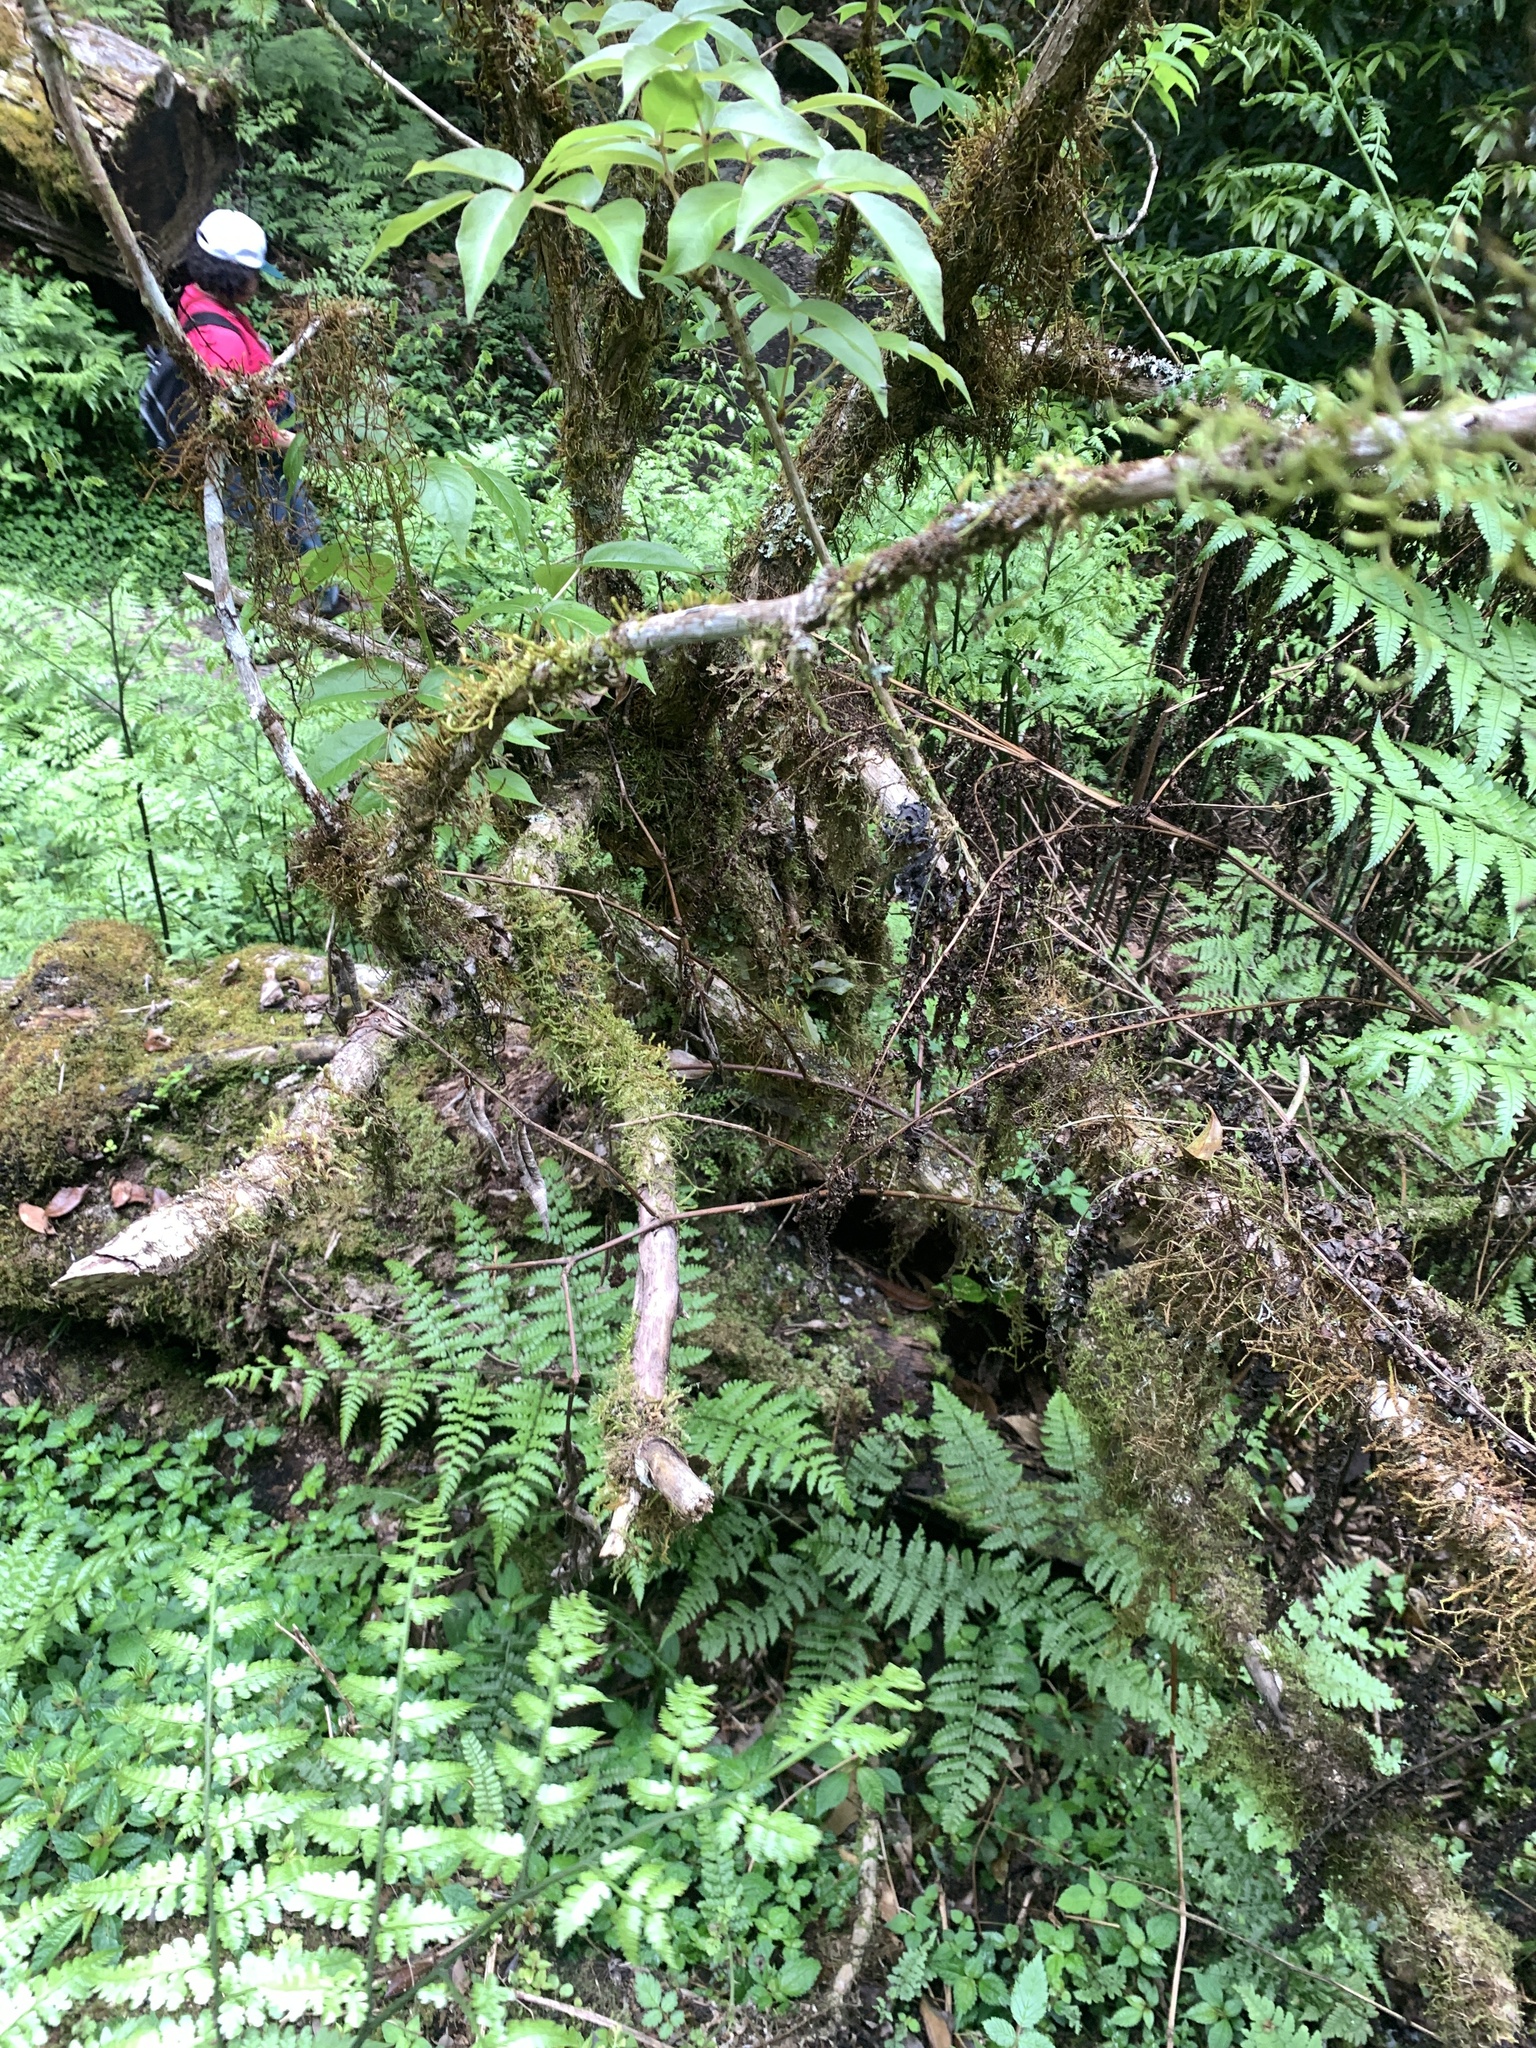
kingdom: Plantae
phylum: Tracheophyta
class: Magnoliopsida
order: Apiales
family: Araliaceae
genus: Aralia
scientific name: Aralia castanopsisicola
